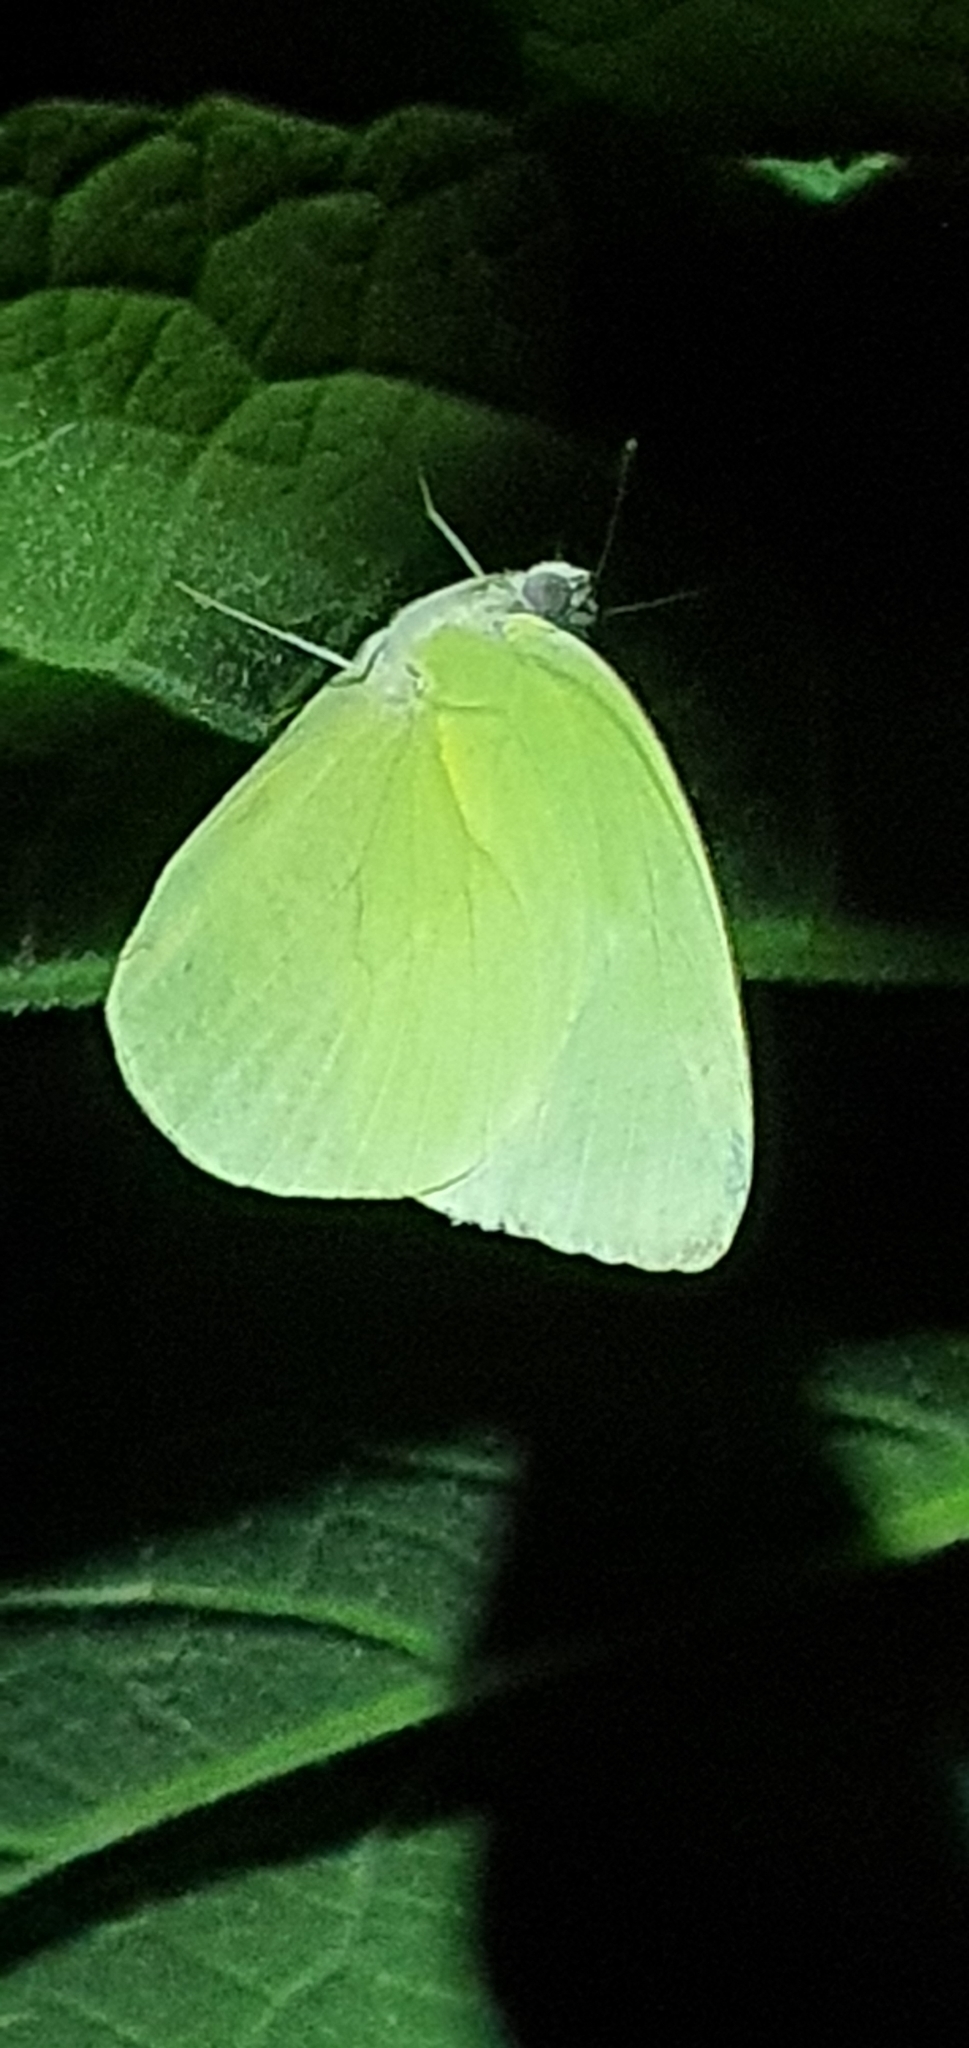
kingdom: Animalia
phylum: Arthropoda
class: Insecta
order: Lepidoptera
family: Pieridae
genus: Catopsilia
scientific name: Catopsilia pomona
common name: Common emigrant
